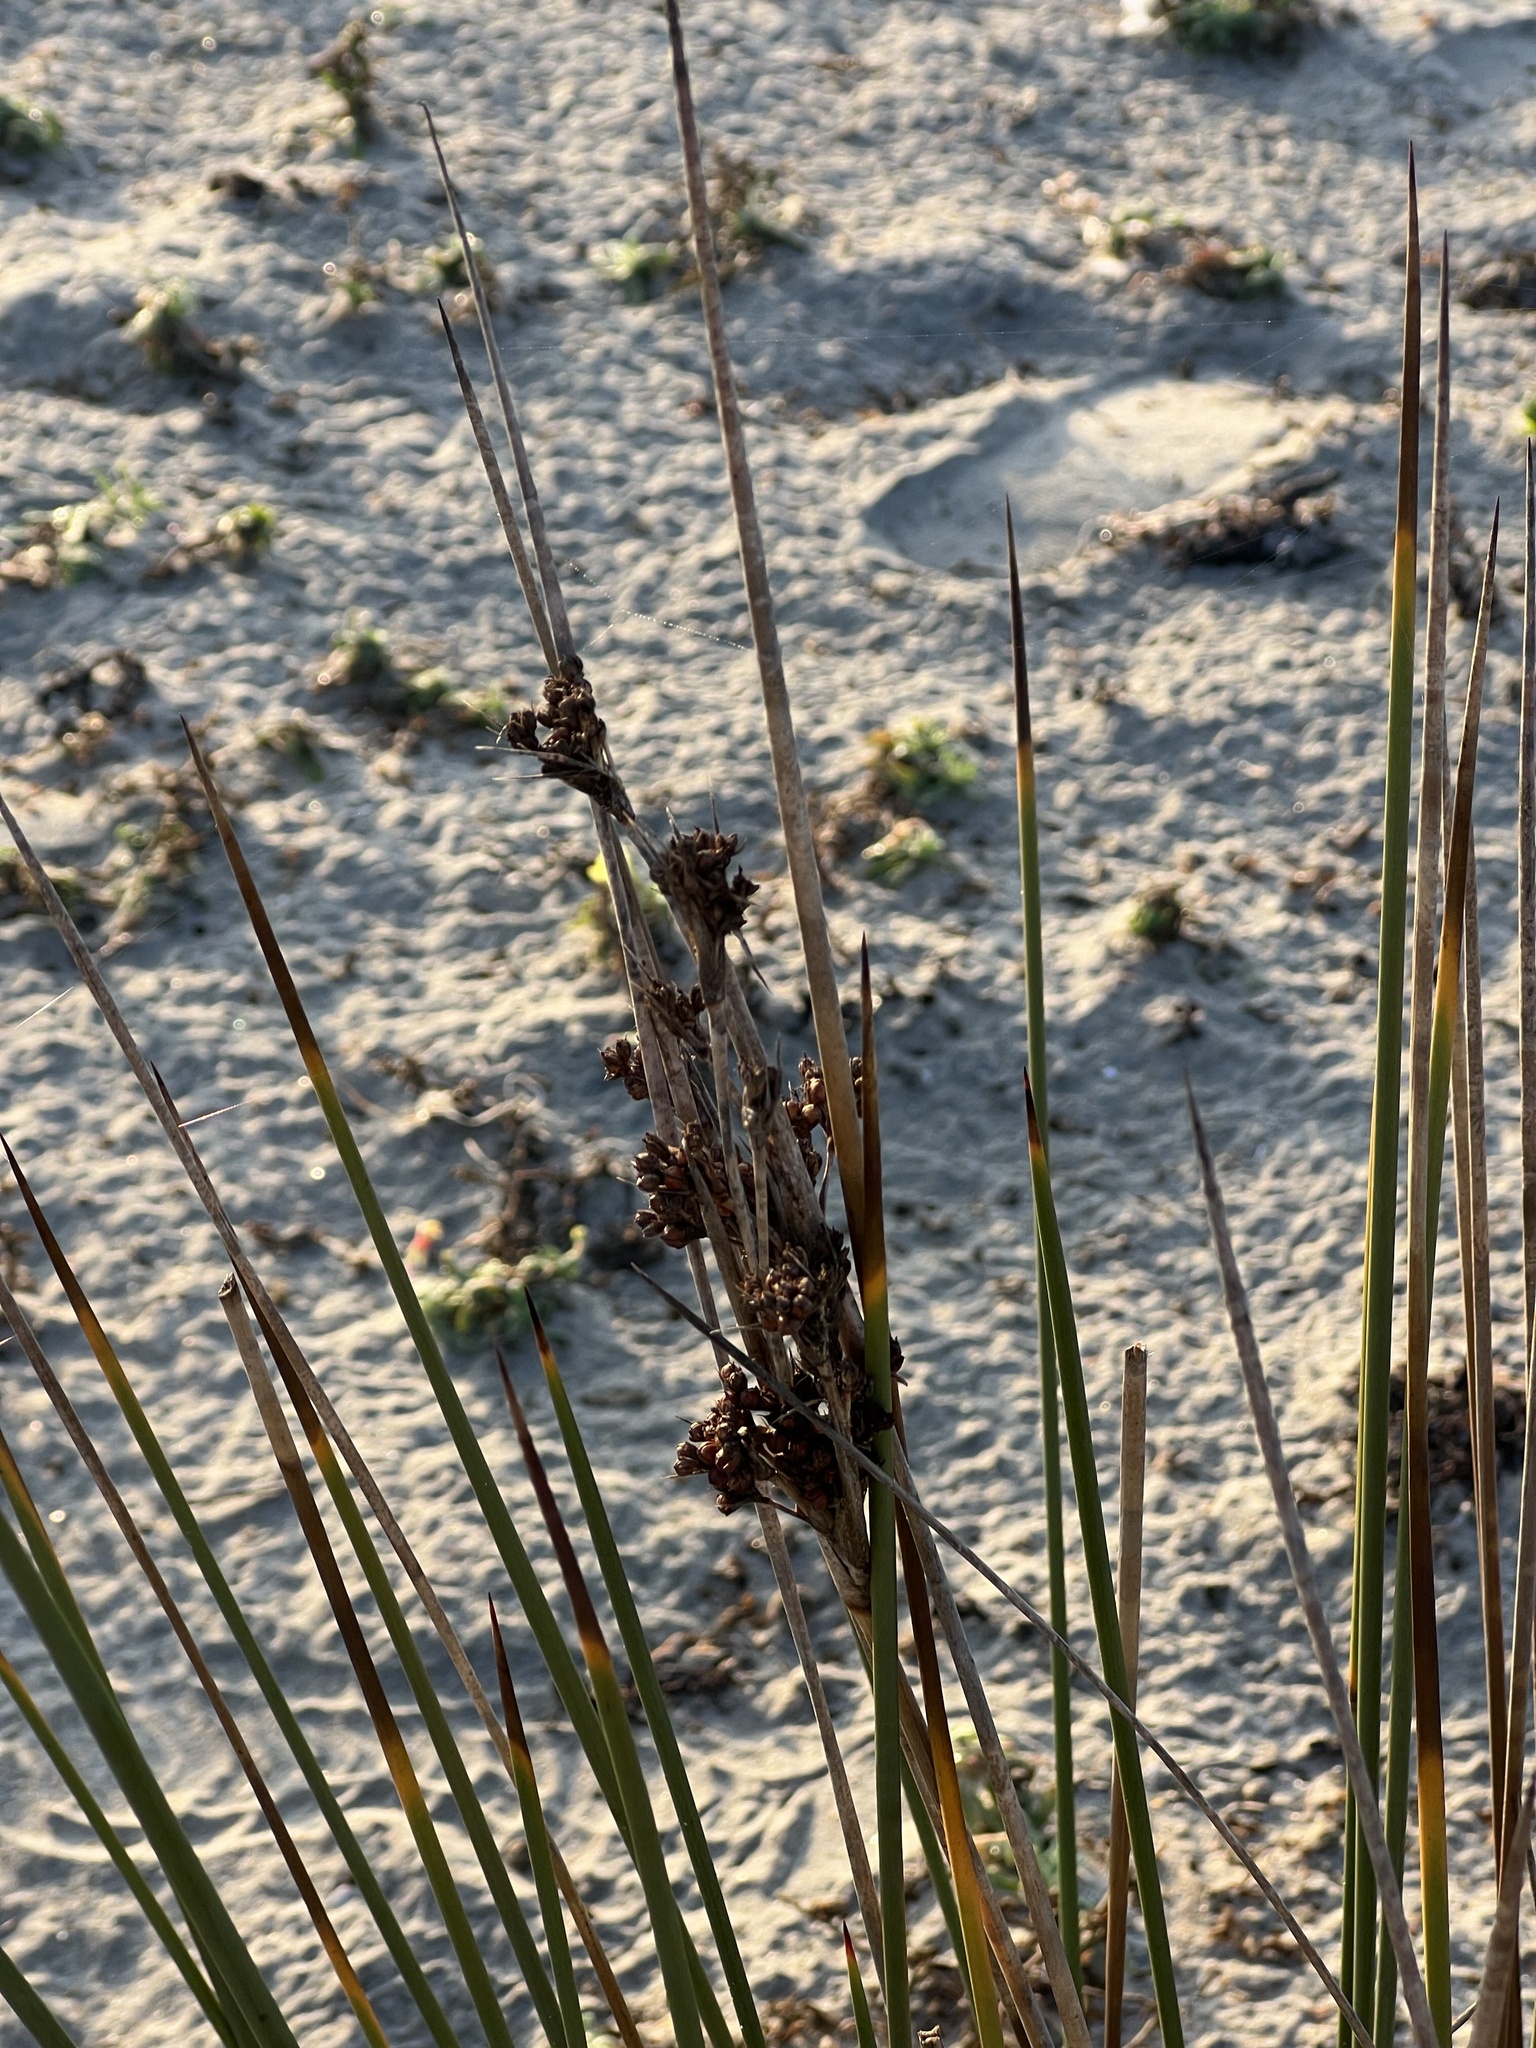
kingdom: Plantae
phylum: Tracheophyta
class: Liliopsida
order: Poales
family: Juncaceae
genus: Juncus
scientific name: Juncus acutus
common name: Sharp rush
